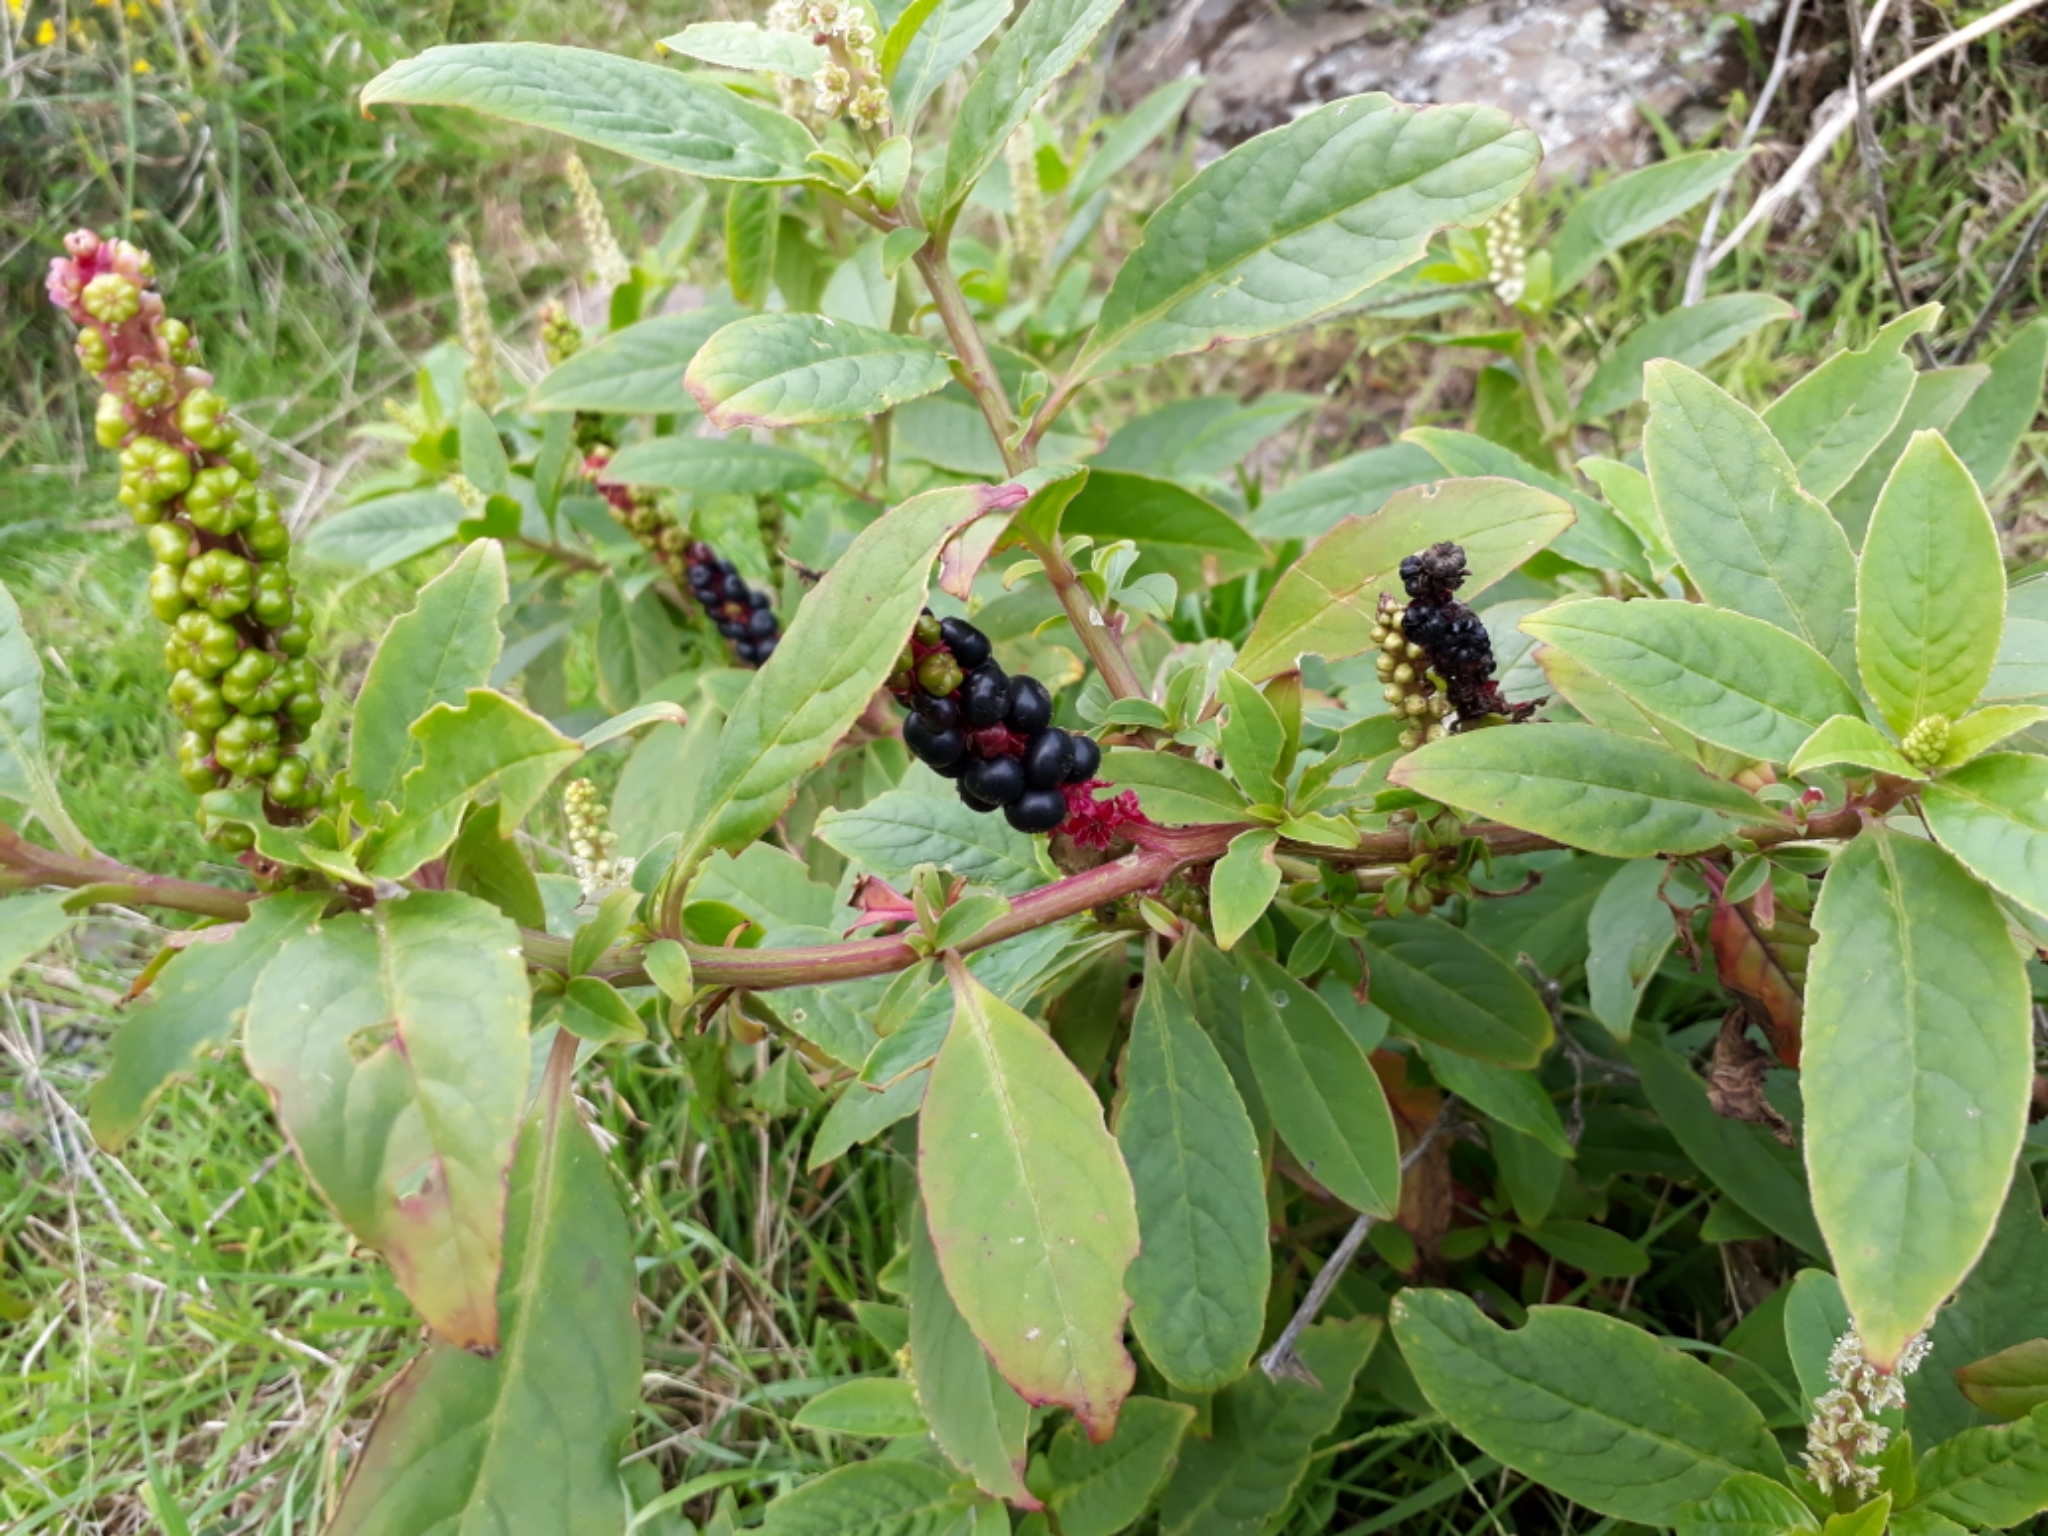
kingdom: Plantae
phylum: Tracheophyta
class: Magnoliopsida
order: Caryophyllales
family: Phytolaccaceae
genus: Phytolacca
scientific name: Phytolacca icosandra
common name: Button pokeweed
